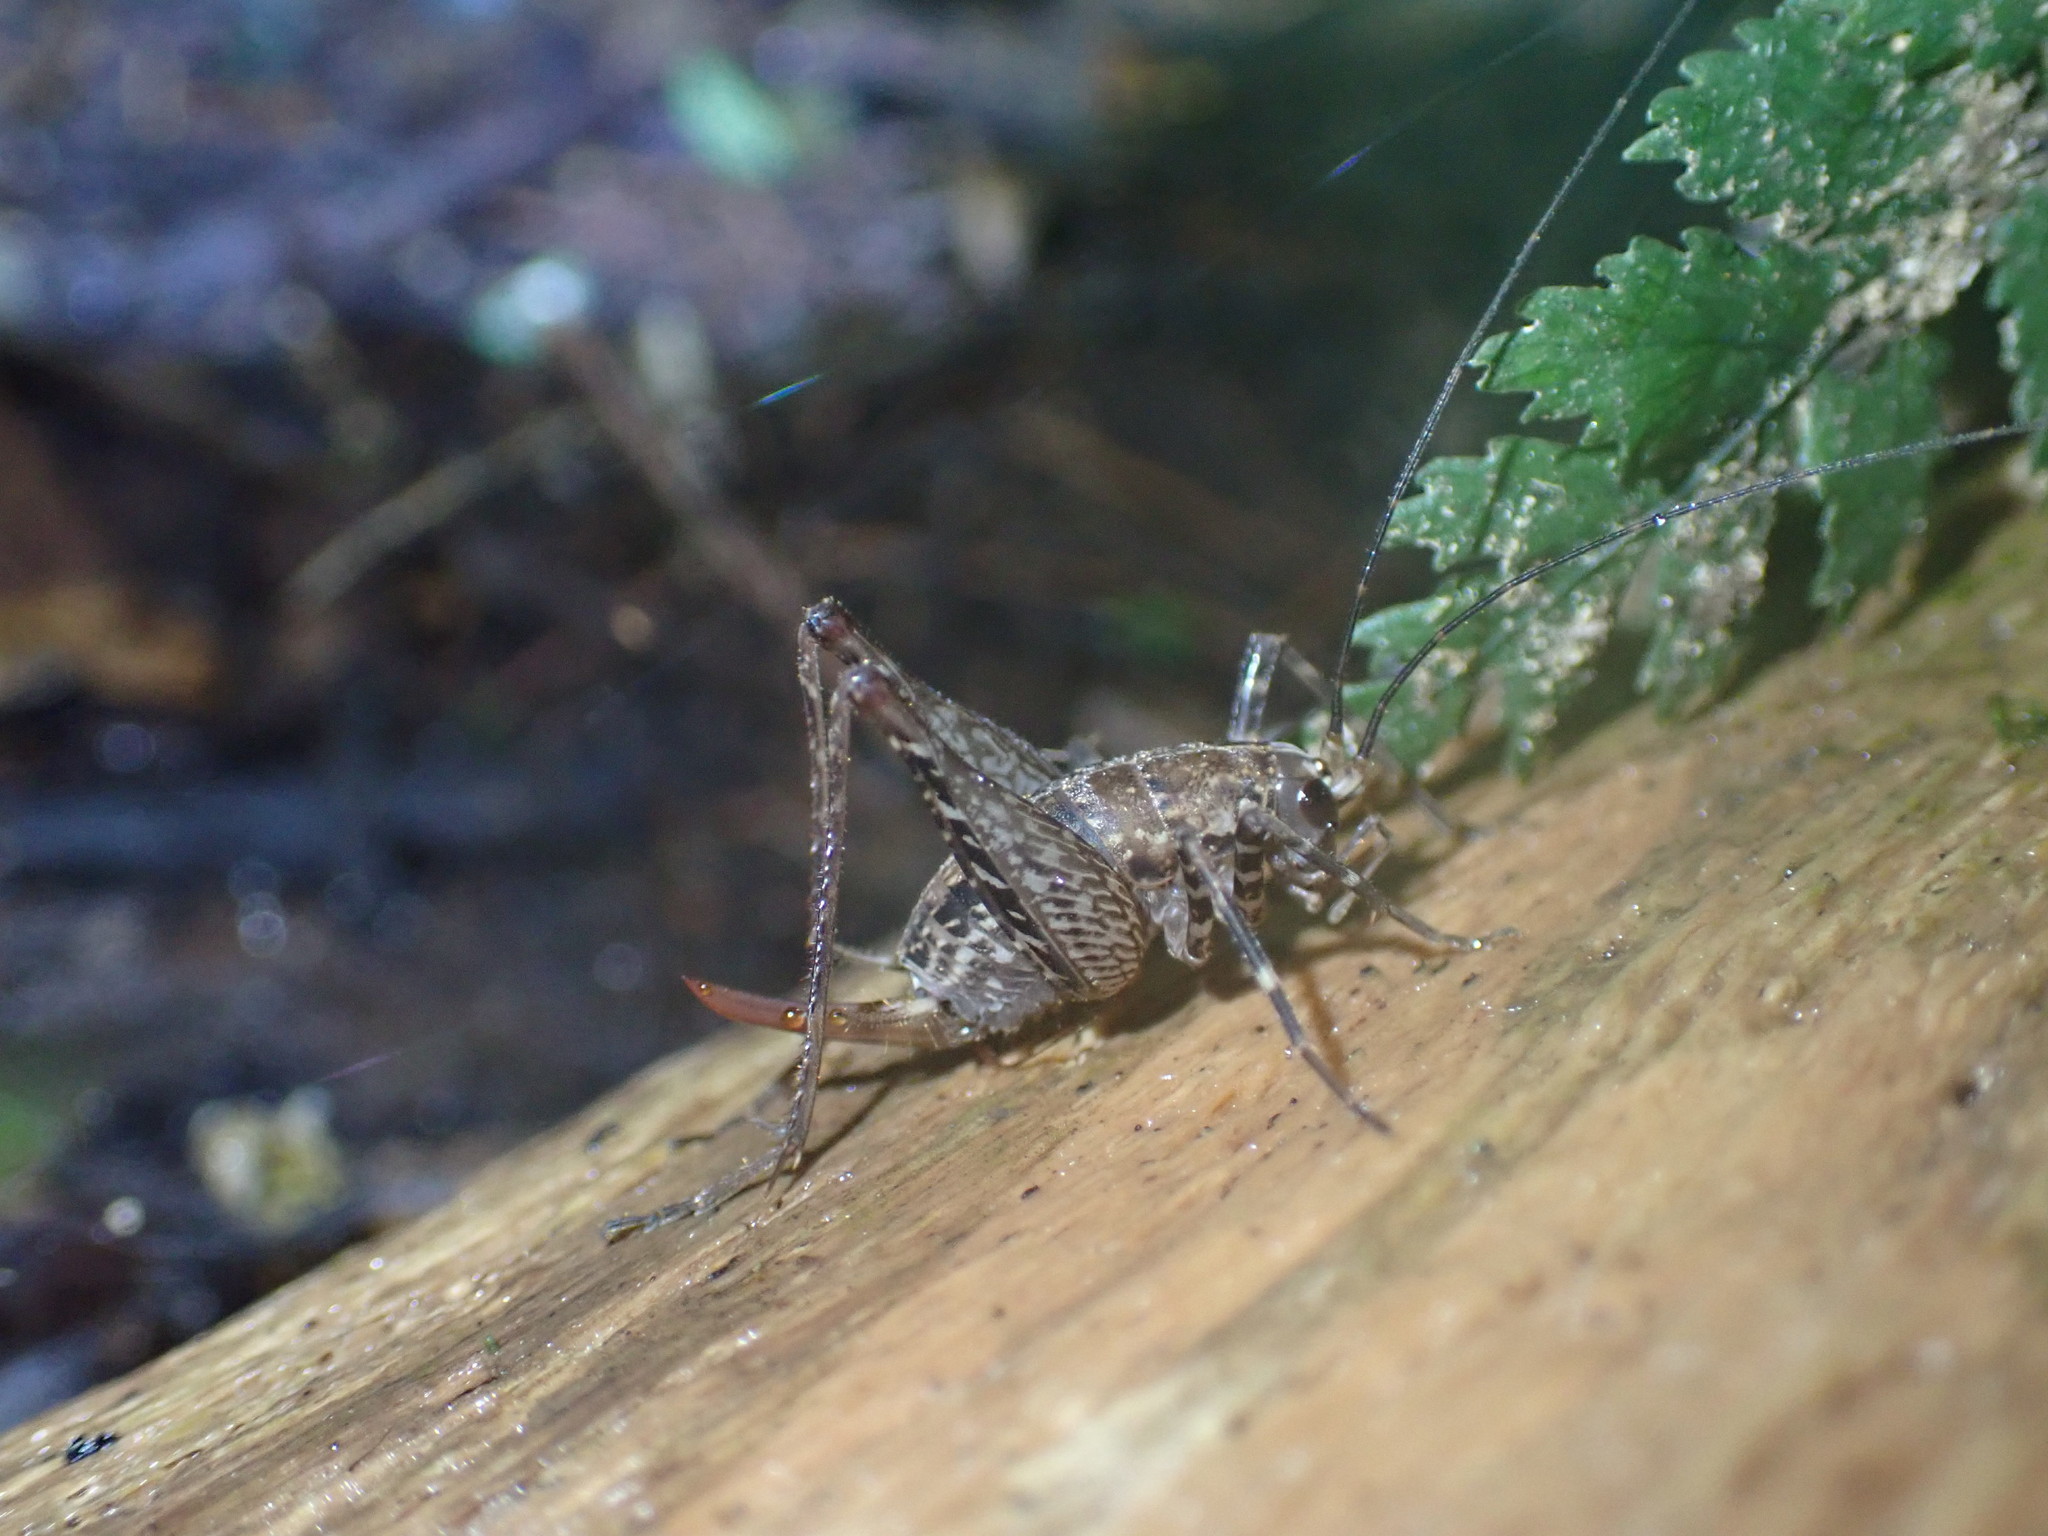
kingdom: Animalia
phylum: Arthropoda
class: Insecta
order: Orthoptera
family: Rhaphidophoridae
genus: Pleioplectron
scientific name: Pleioplectron hudsoni
